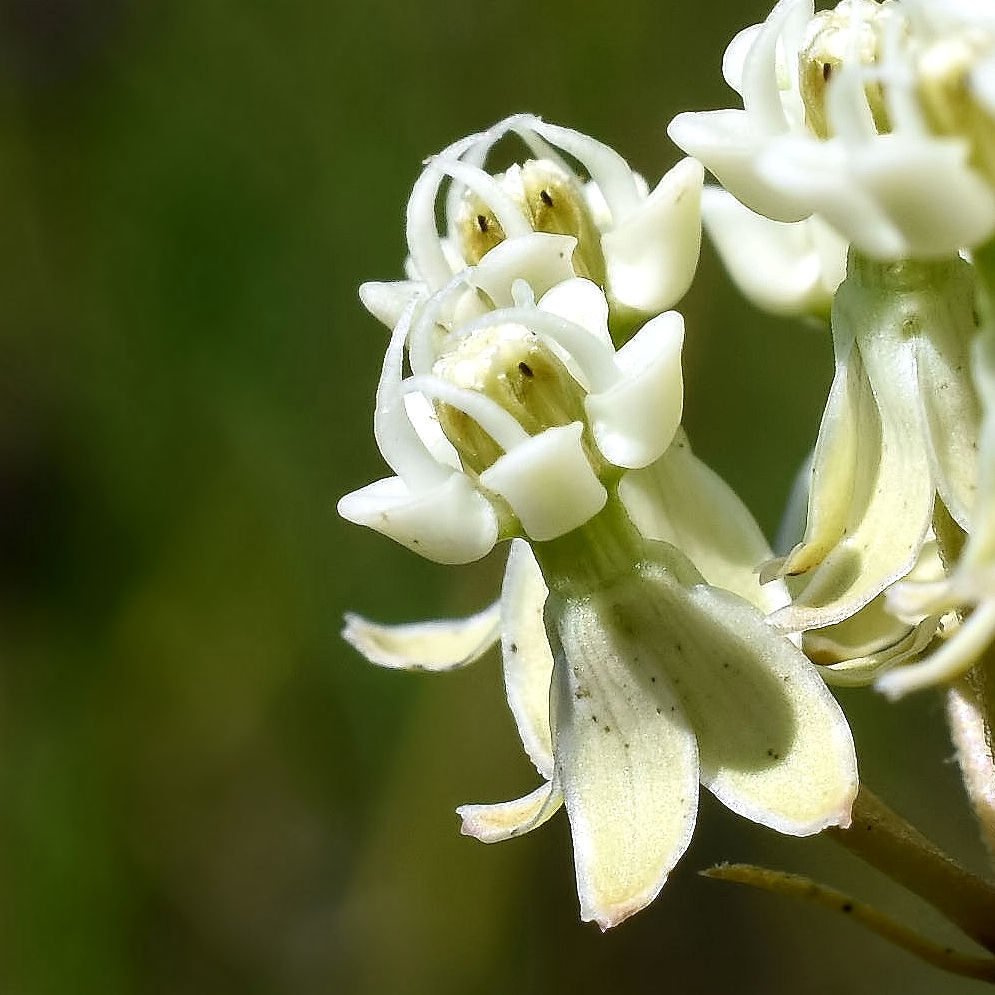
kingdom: Plantae
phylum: Tracheophyta
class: Magnoliopsida
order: Gentianales
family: Apocynaceae
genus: Asclepias
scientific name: Asclepias verticillata
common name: Eastern whorled milkweed
